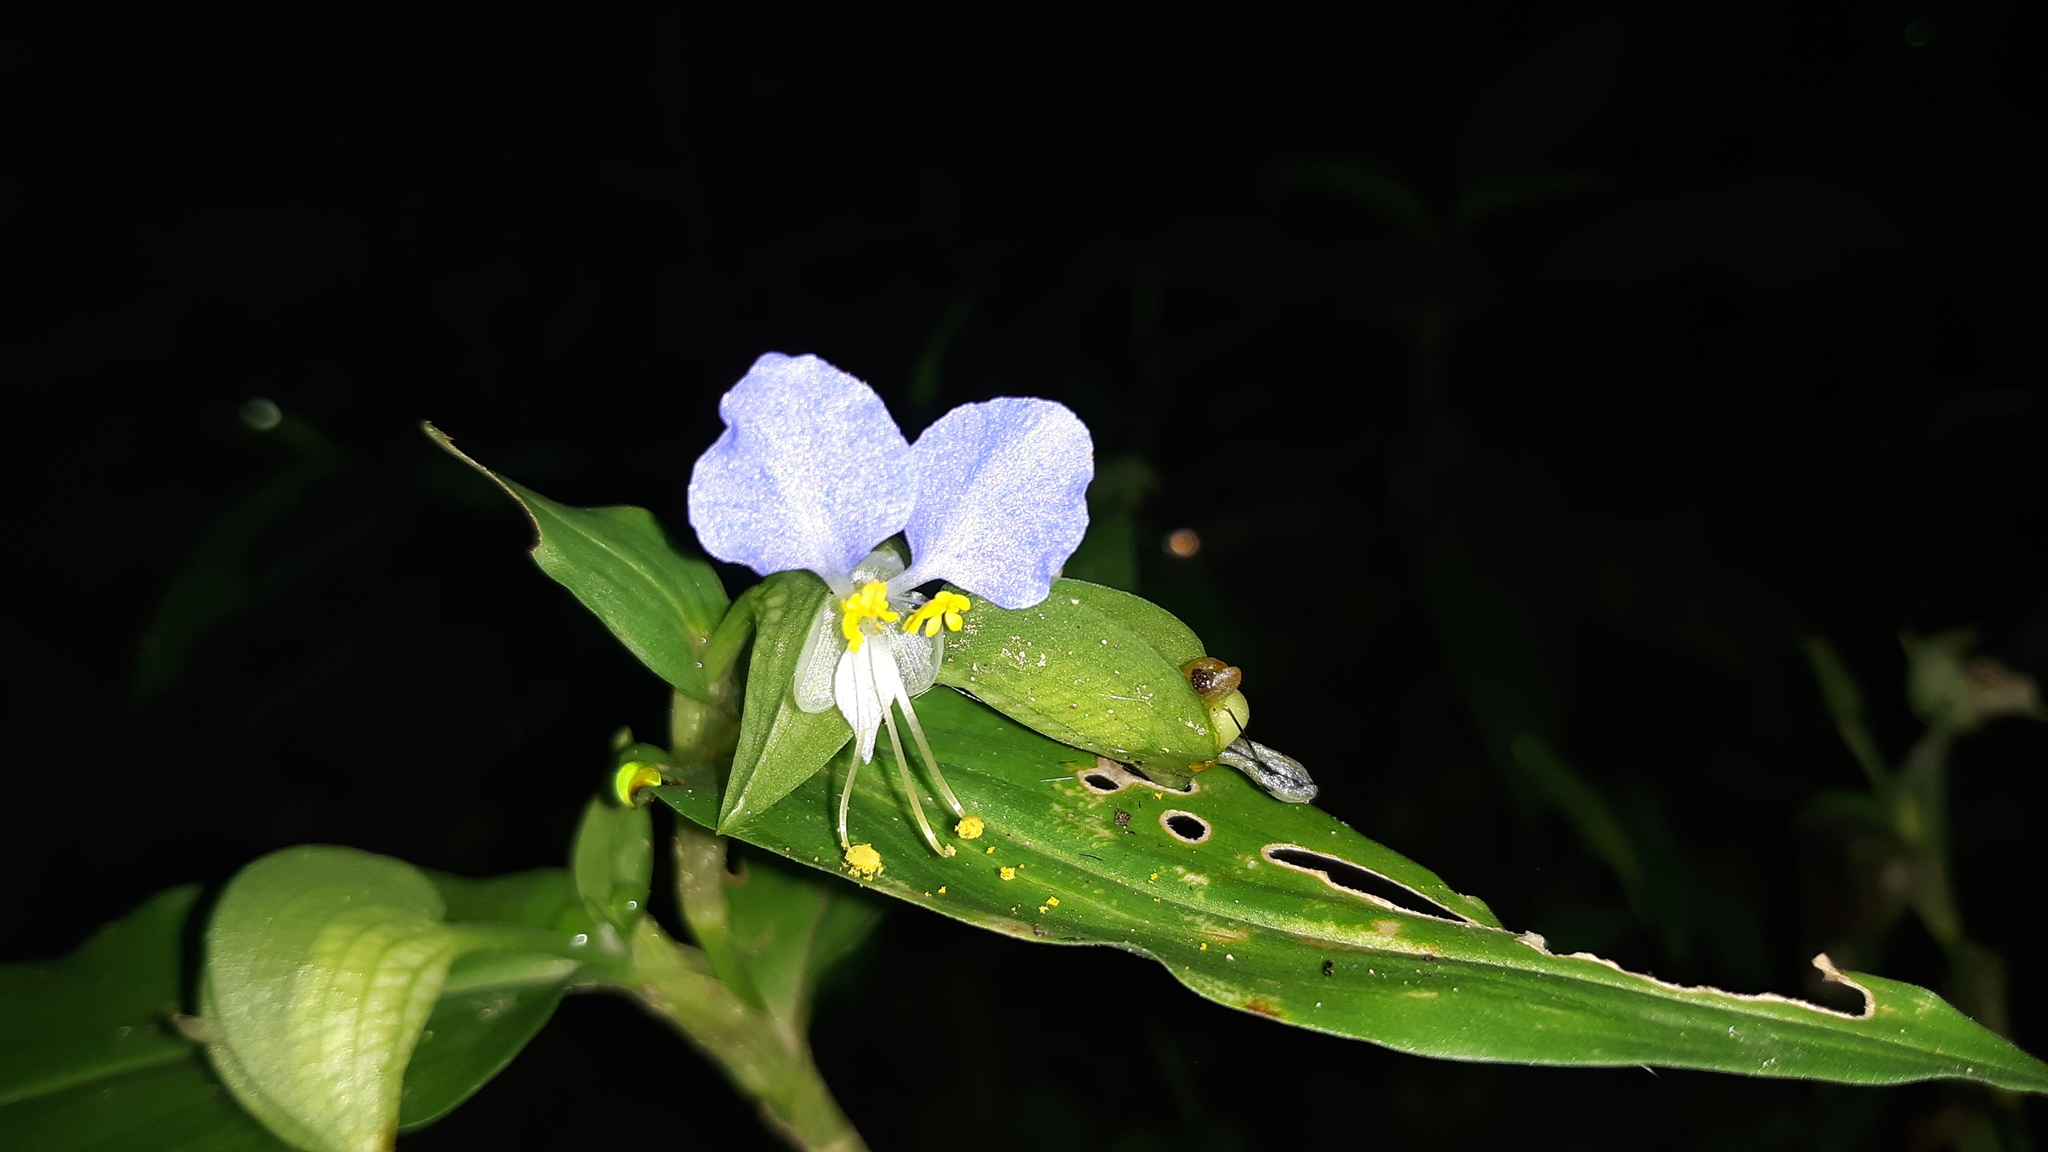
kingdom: Plantae
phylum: Tracheophyta
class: Liliopsida
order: Commelinales
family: Commelinaceae
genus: Commelina
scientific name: Commelina communis
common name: Asiatic dayflower
